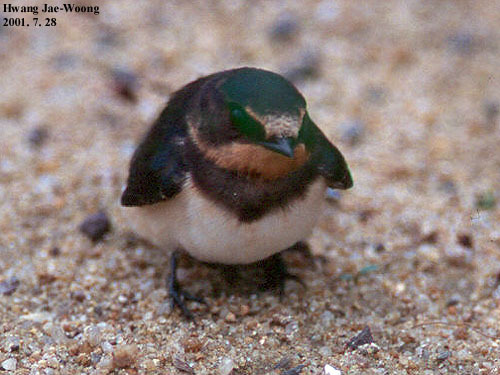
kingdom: Animalia
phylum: Chordata
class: Aves
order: Passeriformes
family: Hirundinidae
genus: Hirundo
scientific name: Hirundo rustica
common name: Barn swallow
